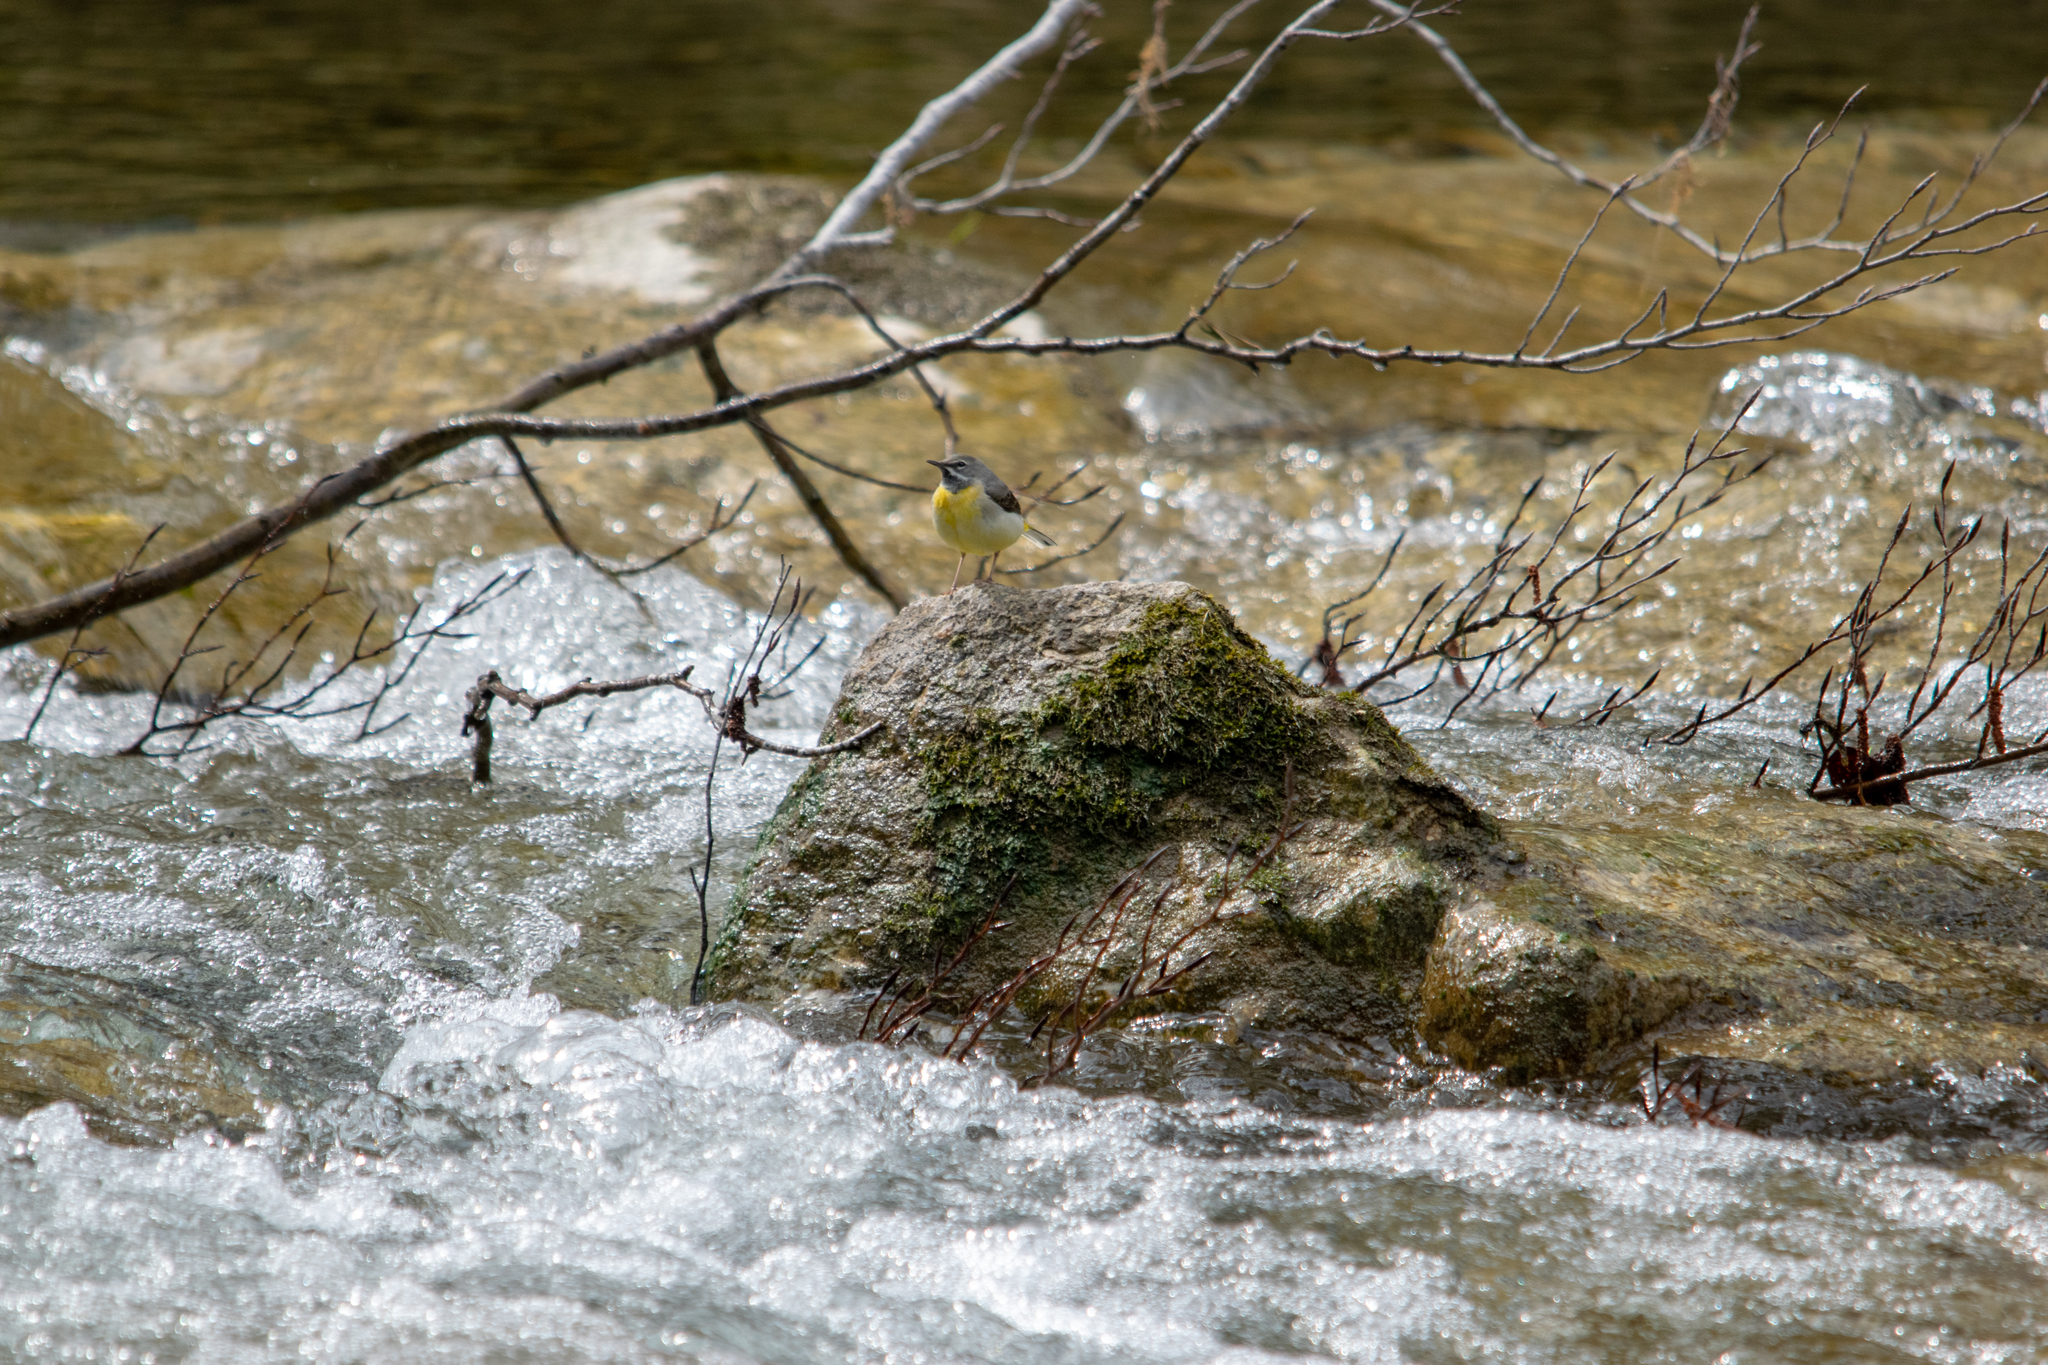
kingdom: Animalia
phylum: Chordata
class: Aves
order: Passeriformes
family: Motacillidae
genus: Motacilla
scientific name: Motacilla cinerea
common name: Grey wagtail
